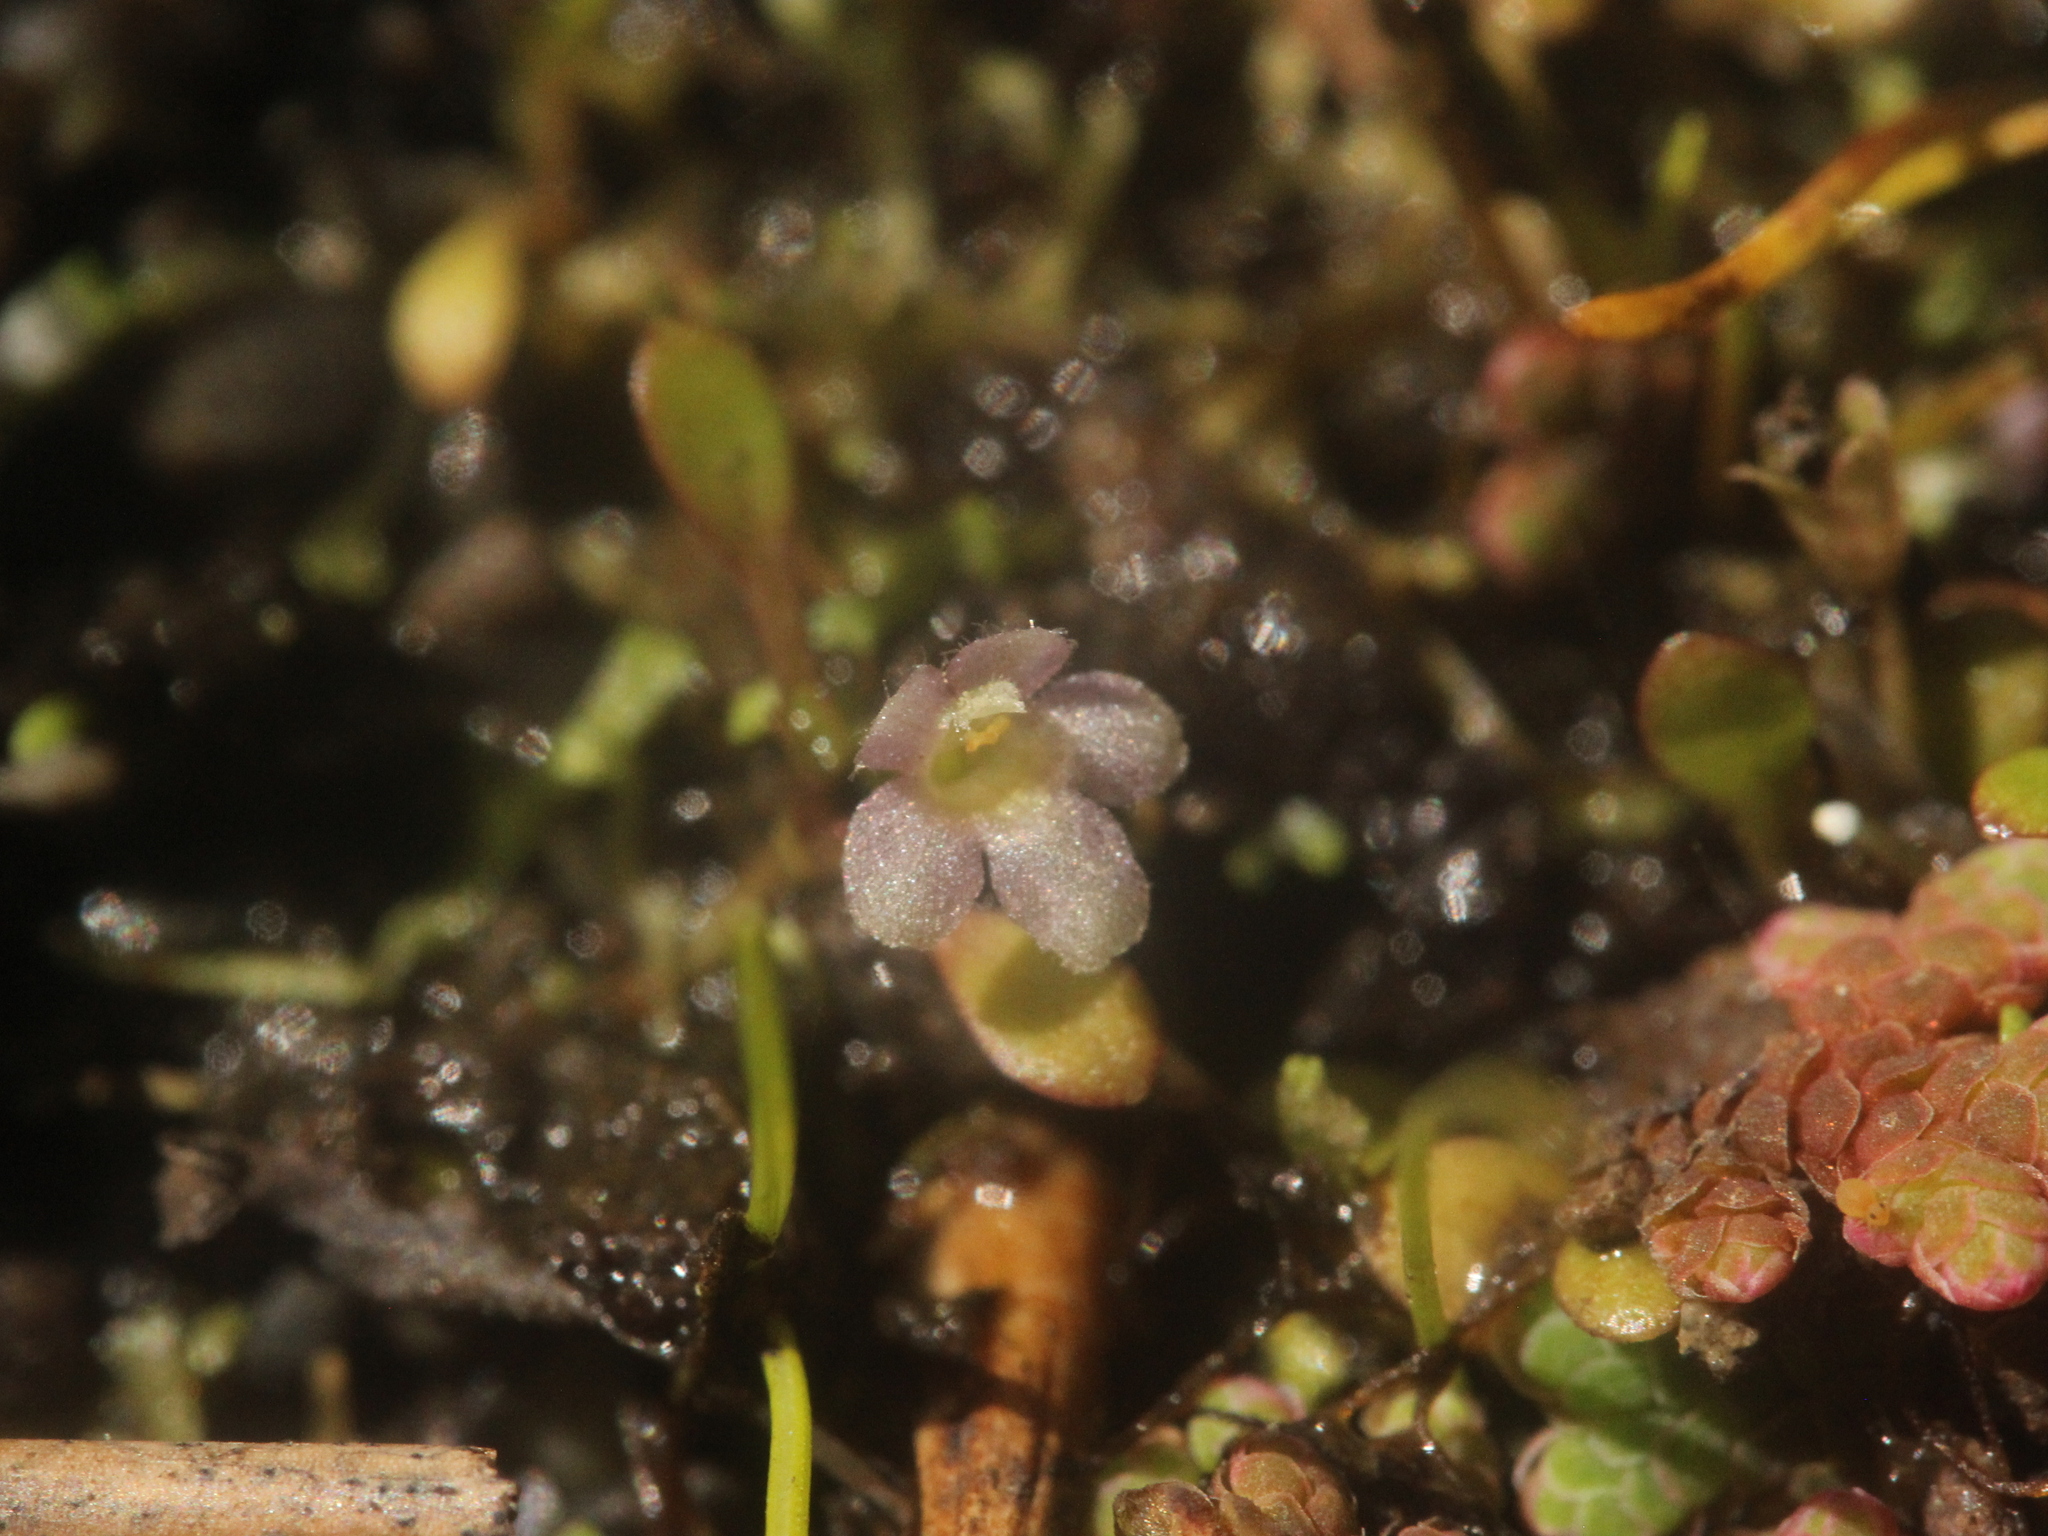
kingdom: Plantae
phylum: Tracheophyta
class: Magnoliopsida
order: Lamiales
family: Phrymaceae
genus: Glossostigma
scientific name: Glossostigma elatinoides
